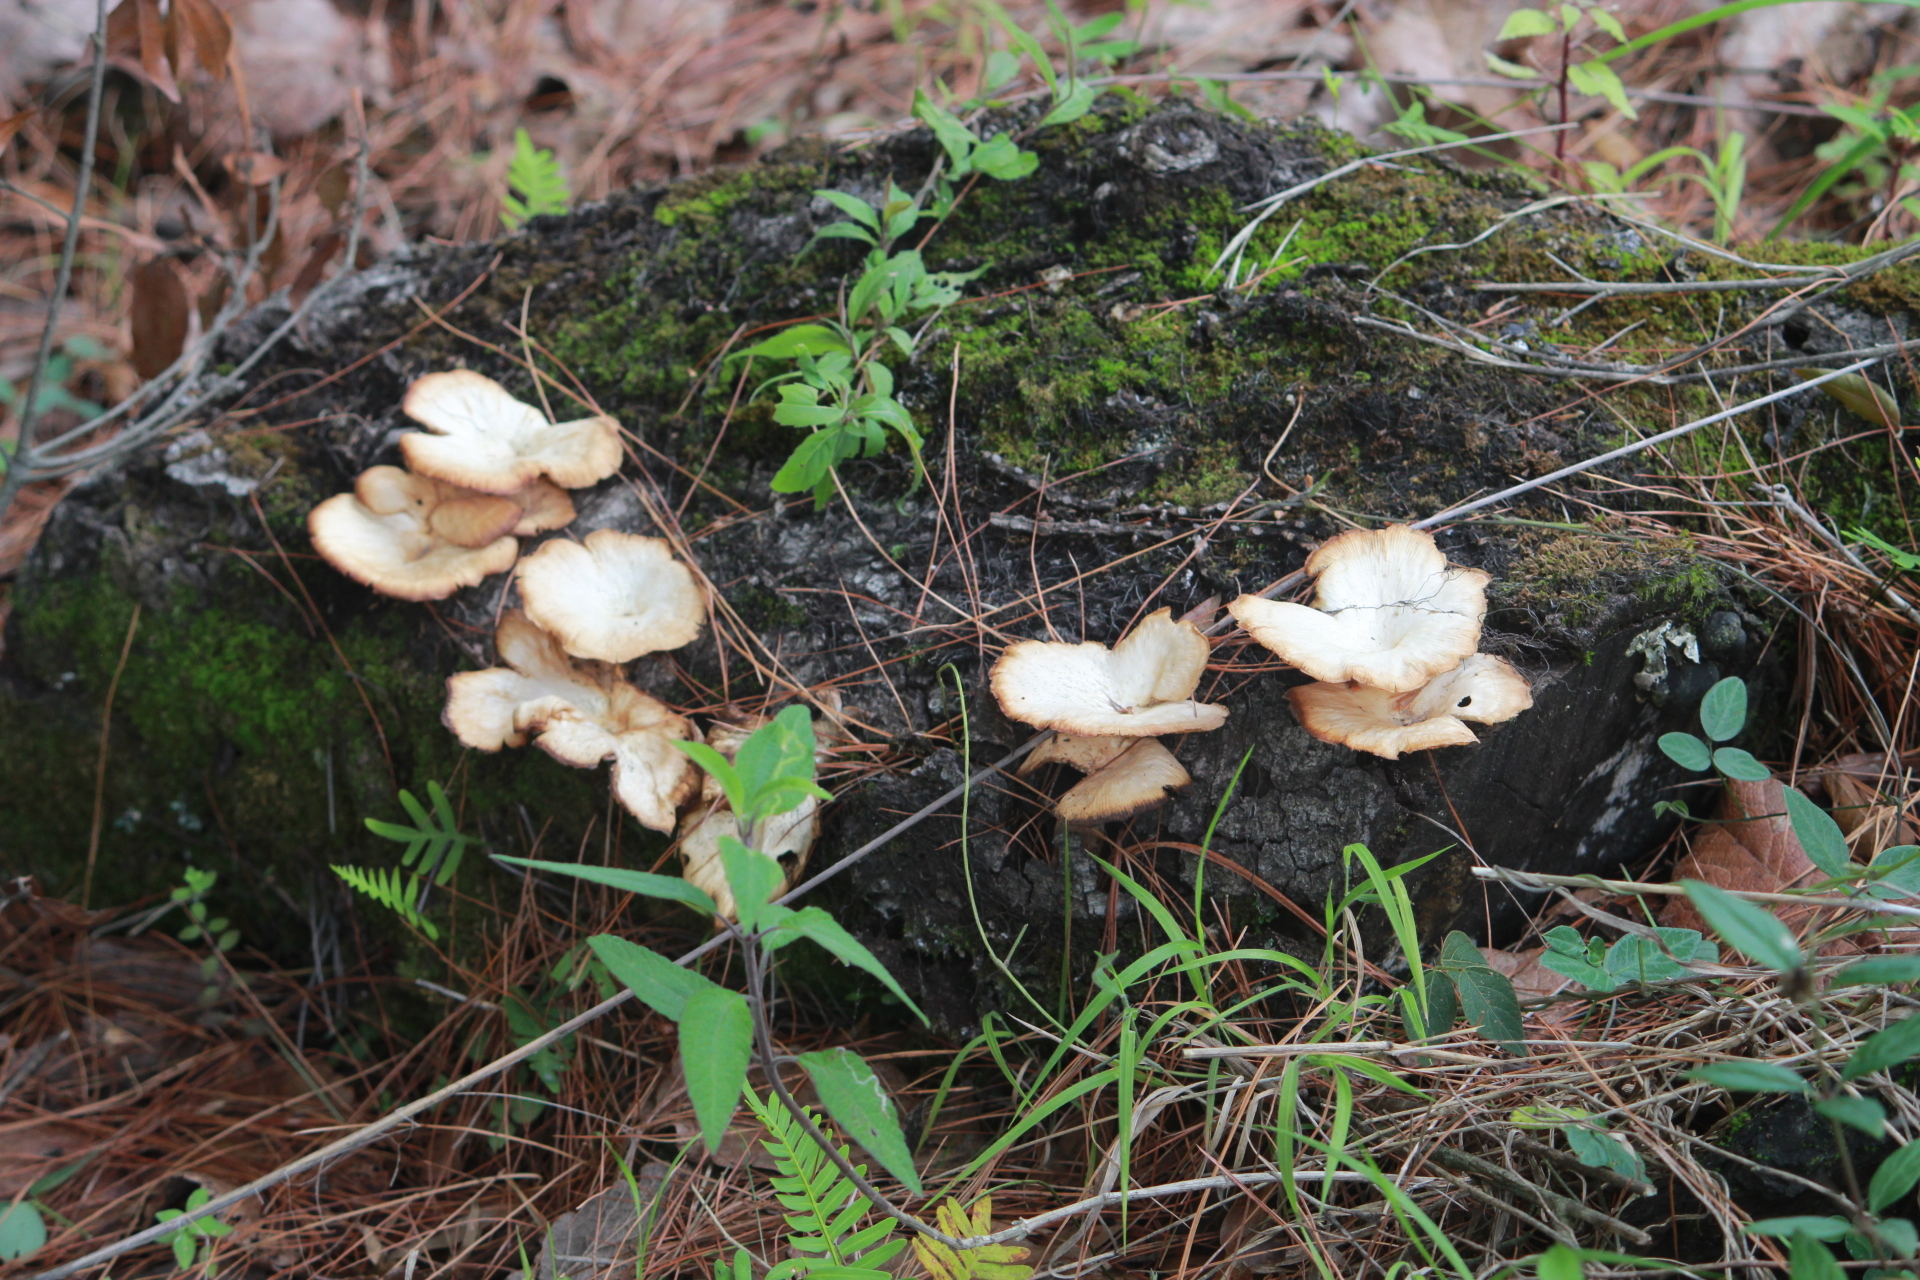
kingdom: Fungi
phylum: Basidiomycota
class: Agaricomycetes
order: Agaricales
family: Pleurotaceae
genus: Pleurotus
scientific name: Pleurotus ostreatus
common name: Oyster mushroom
